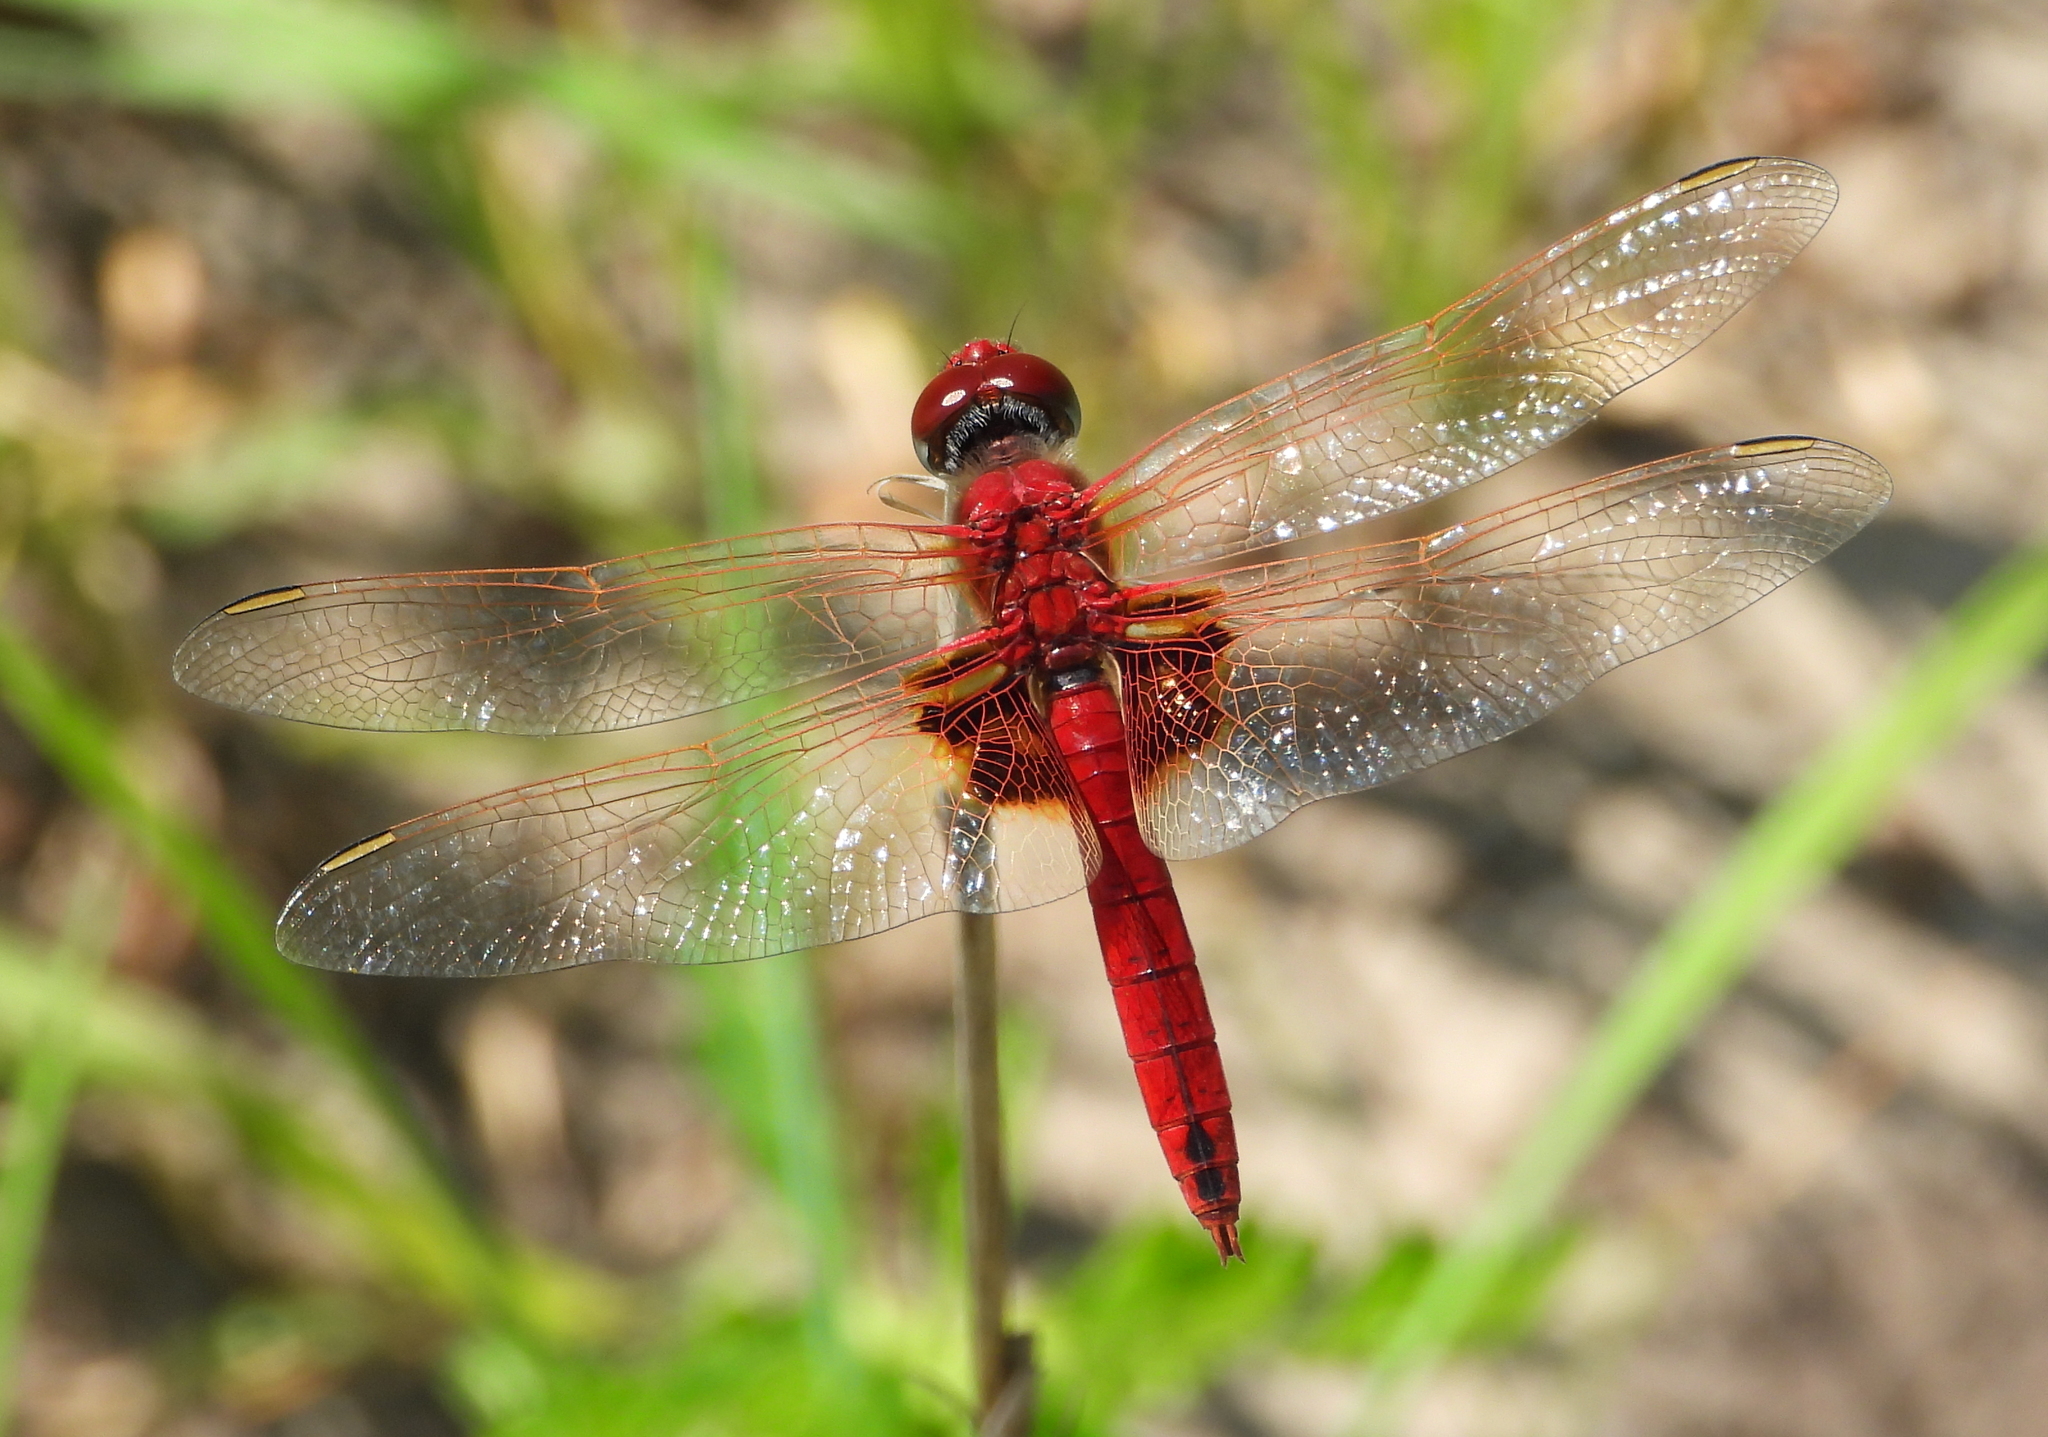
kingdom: Animalia
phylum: Arthropoda
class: Insecta
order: Odonata
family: Libellulidae
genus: Urothemis
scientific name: Urothemis assignata
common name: Red basker
